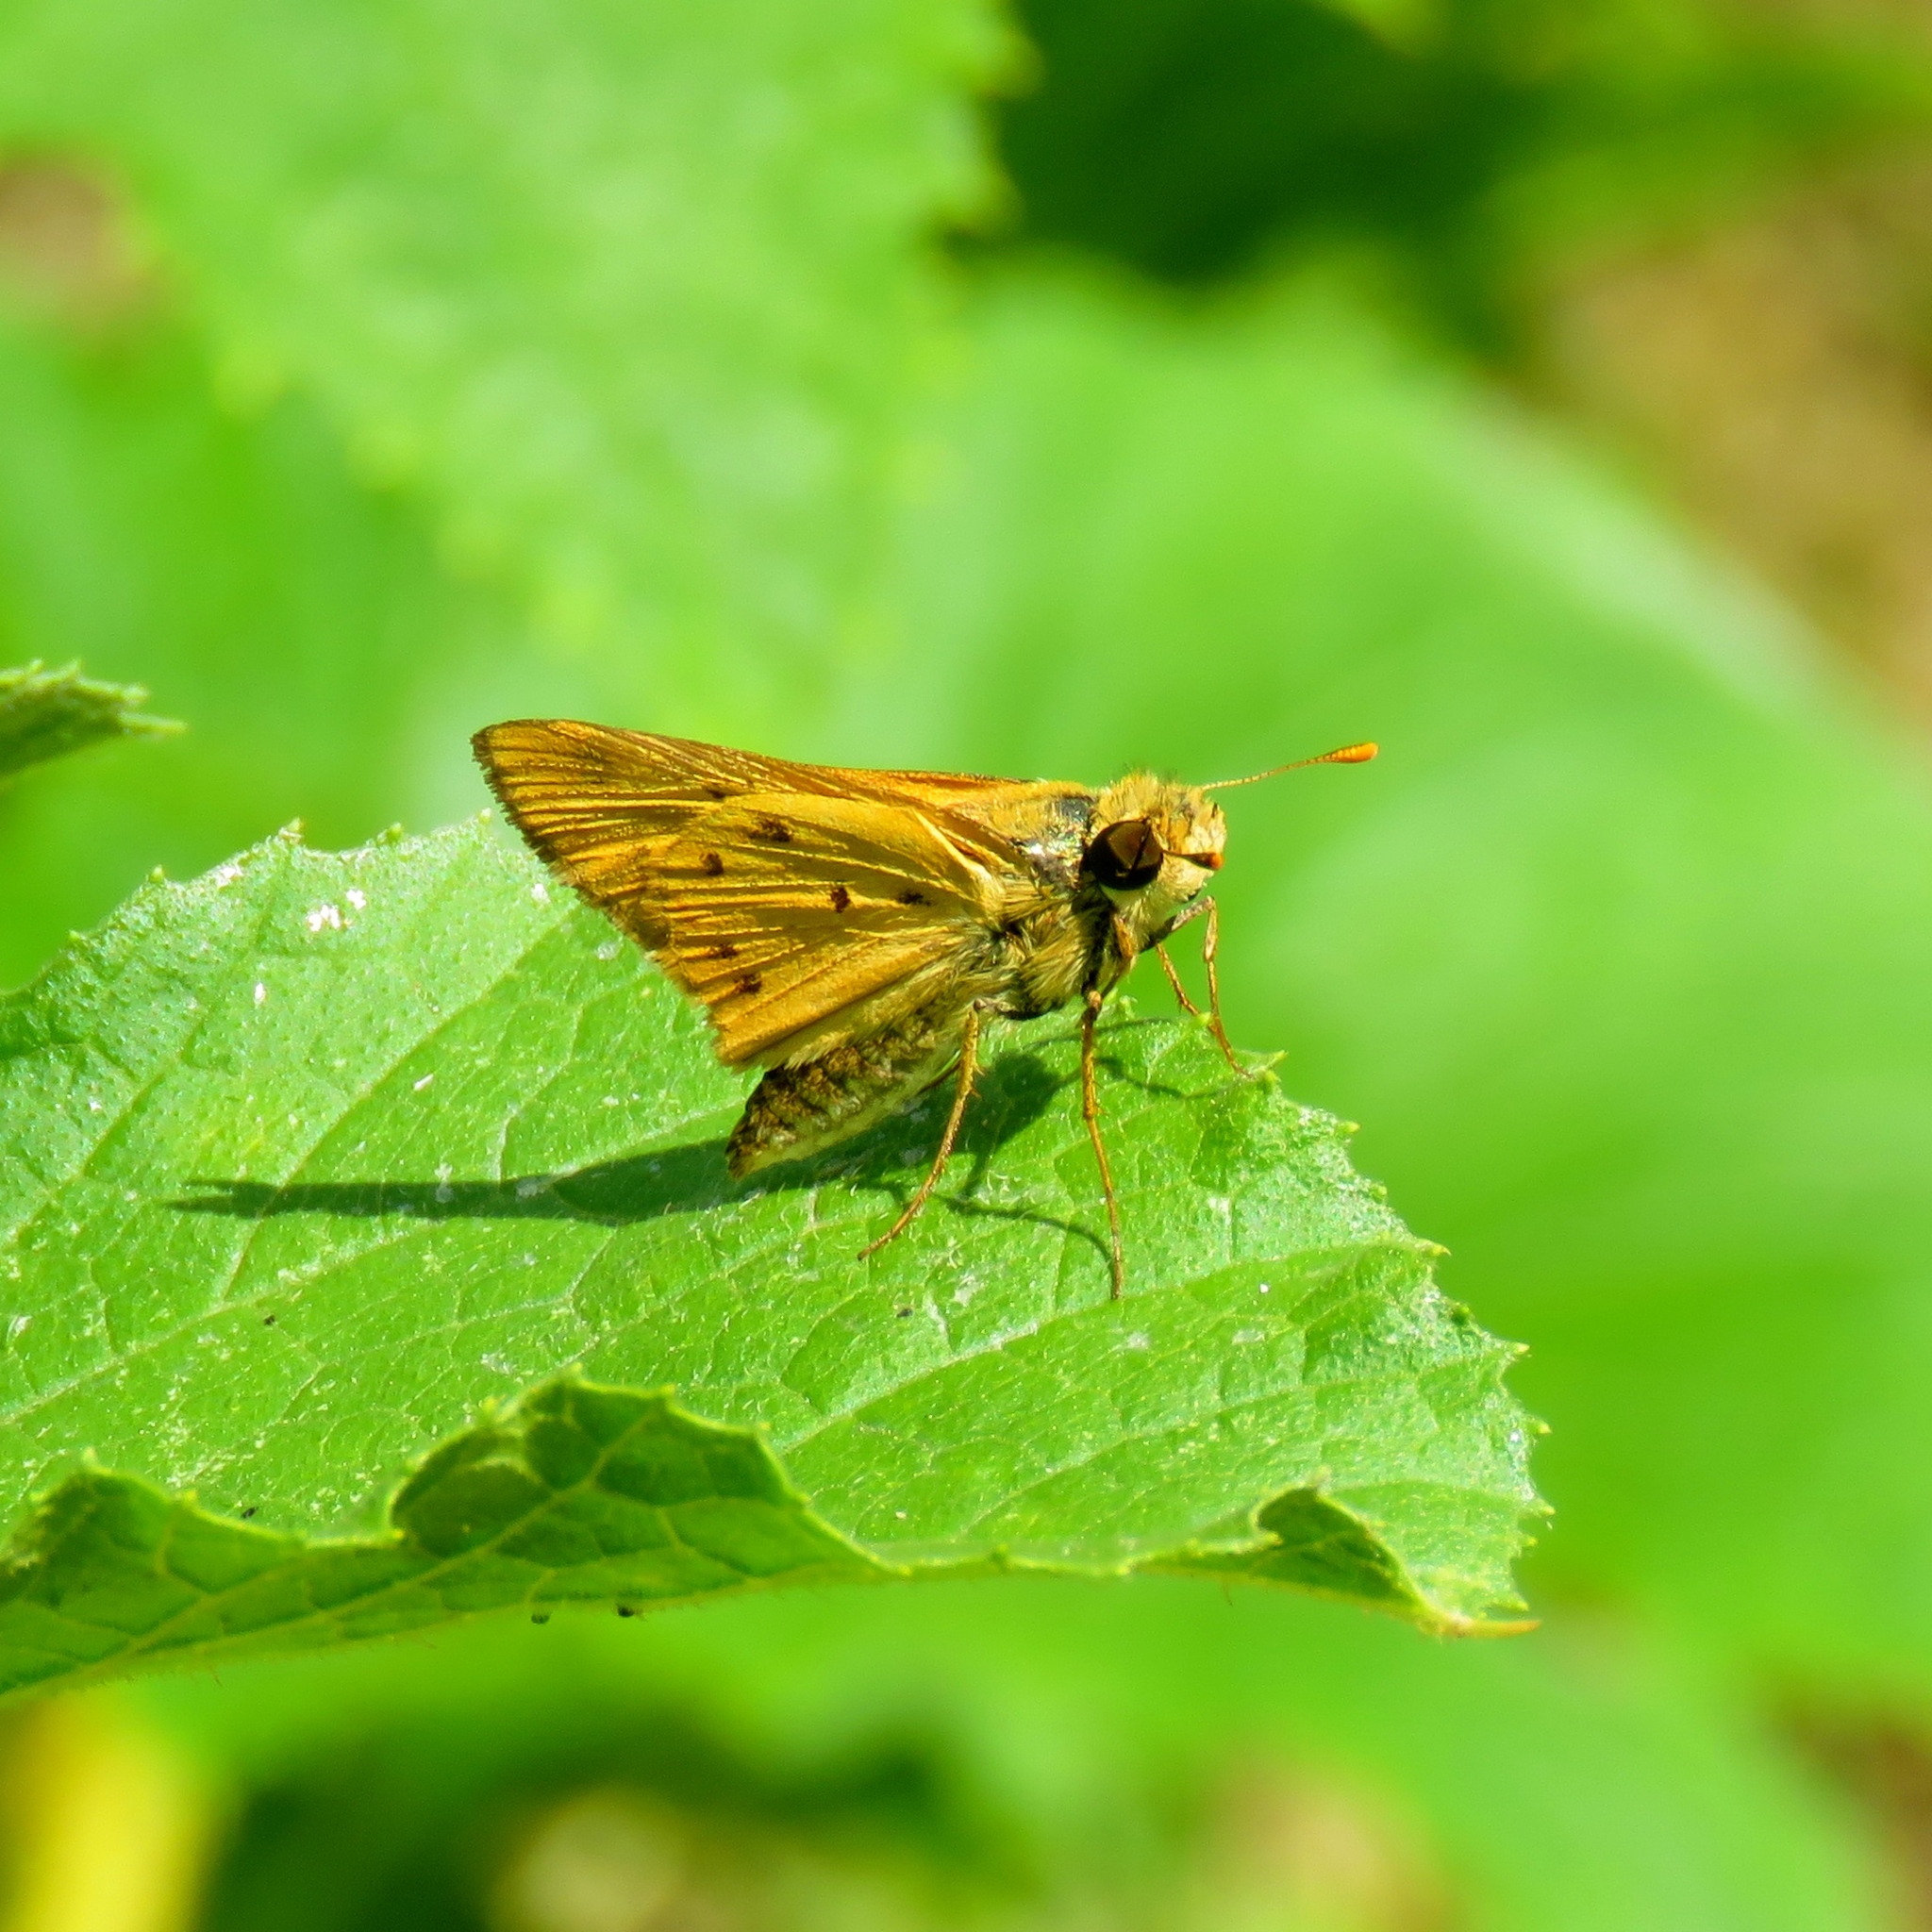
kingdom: Animalia
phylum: Arthropoda
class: Insecta
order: Lepidoptera
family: Hesperiidae
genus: Hylephila
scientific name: Hylephila phyleus
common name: Fiery skipper
